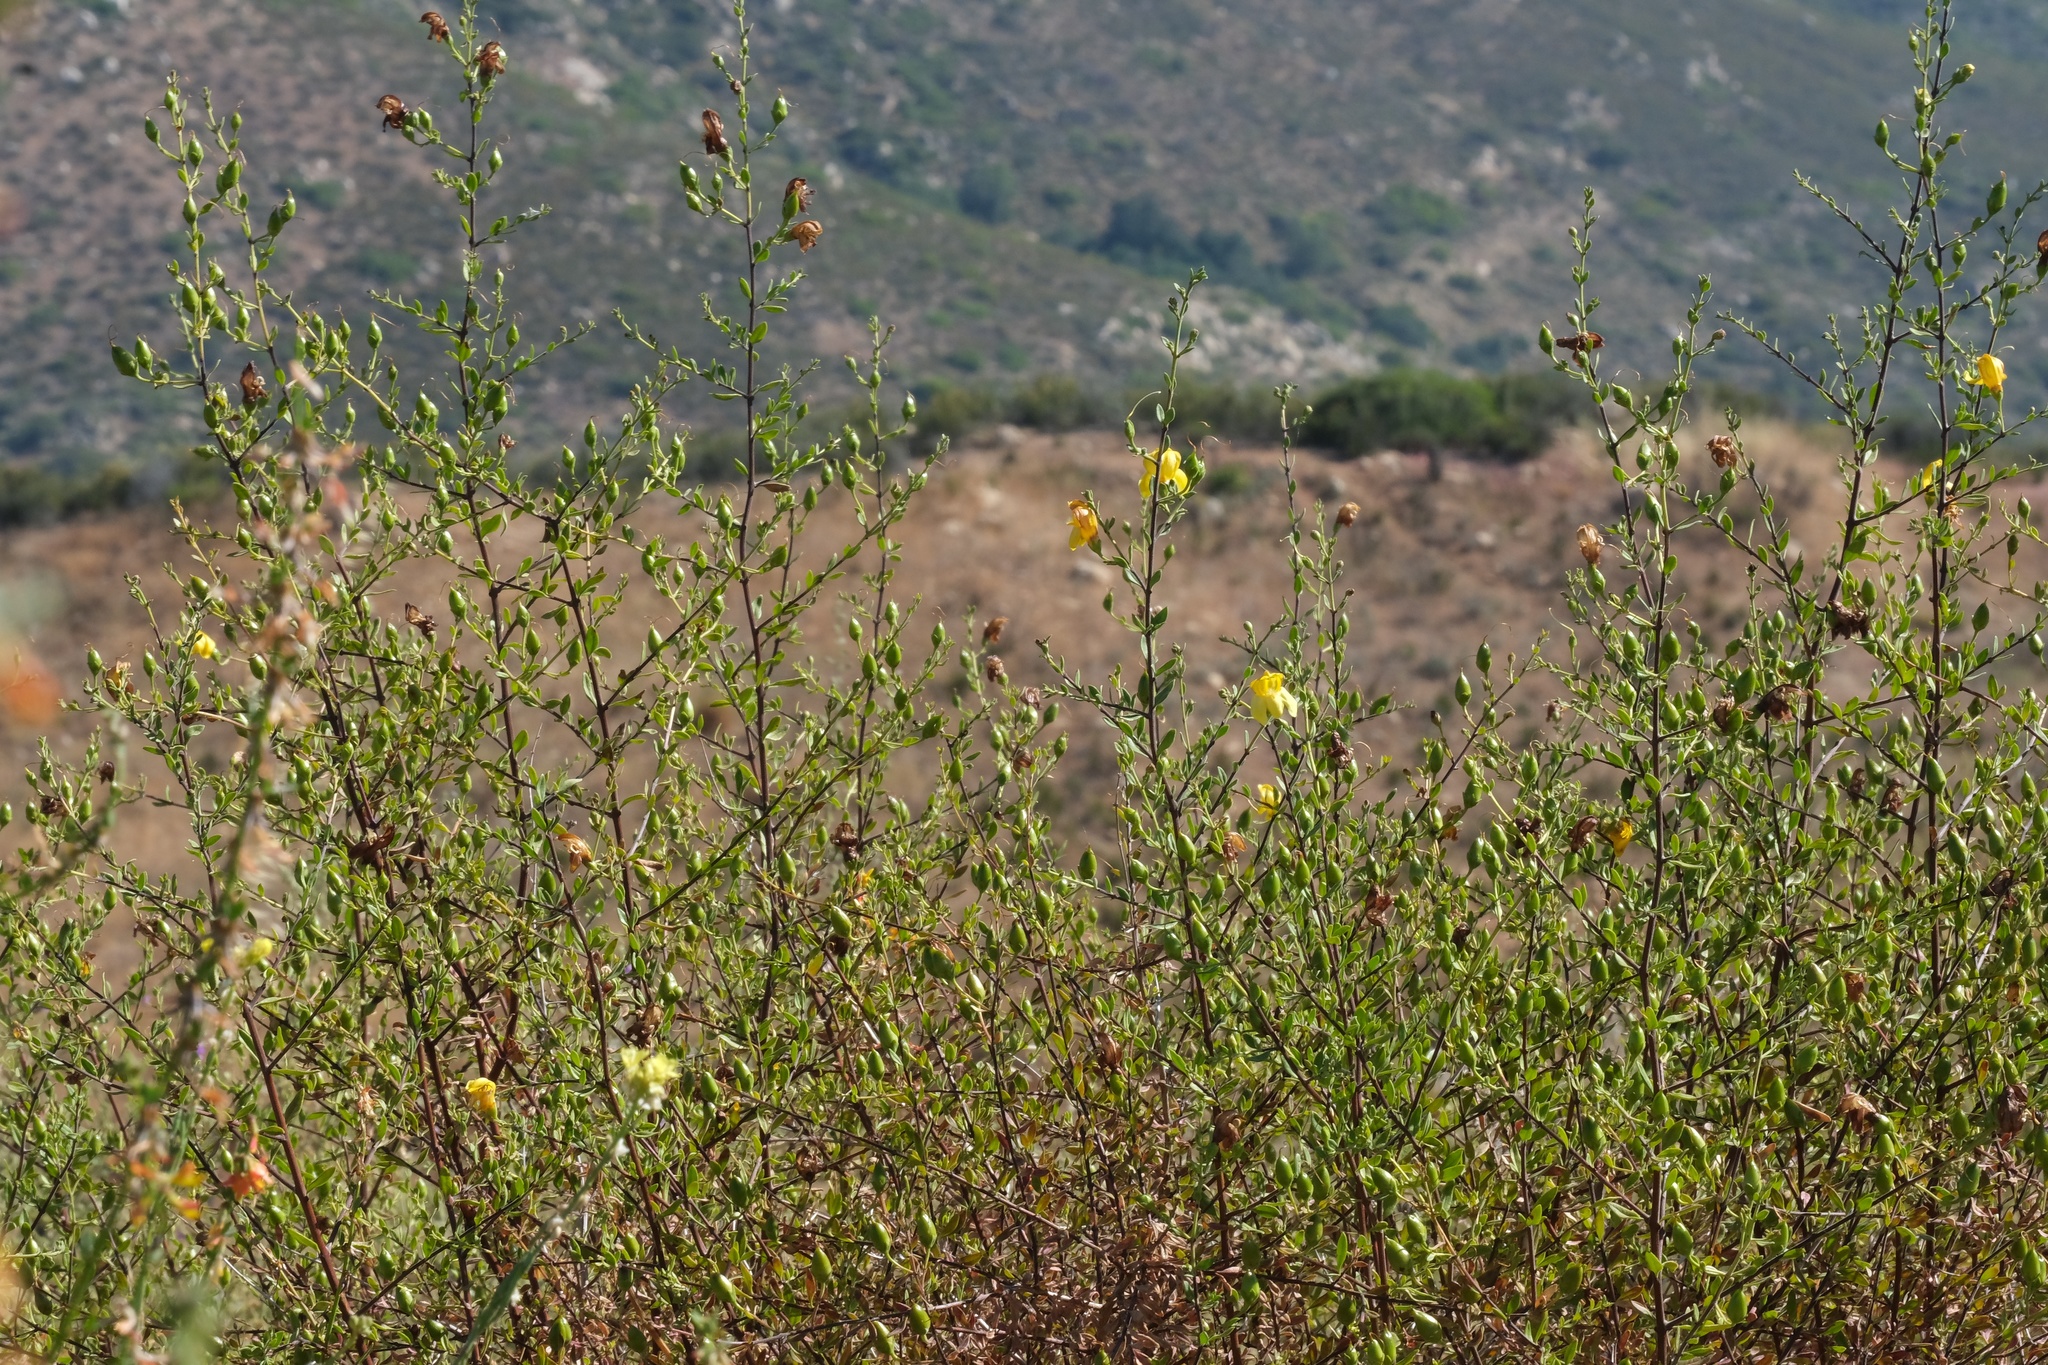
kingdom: Plantae
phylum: Tracheophyta
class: Magnoliopsida
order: Lamiales
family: Plantaginaceae
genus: Keckiella
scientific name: Keckiella antirrhinoides
